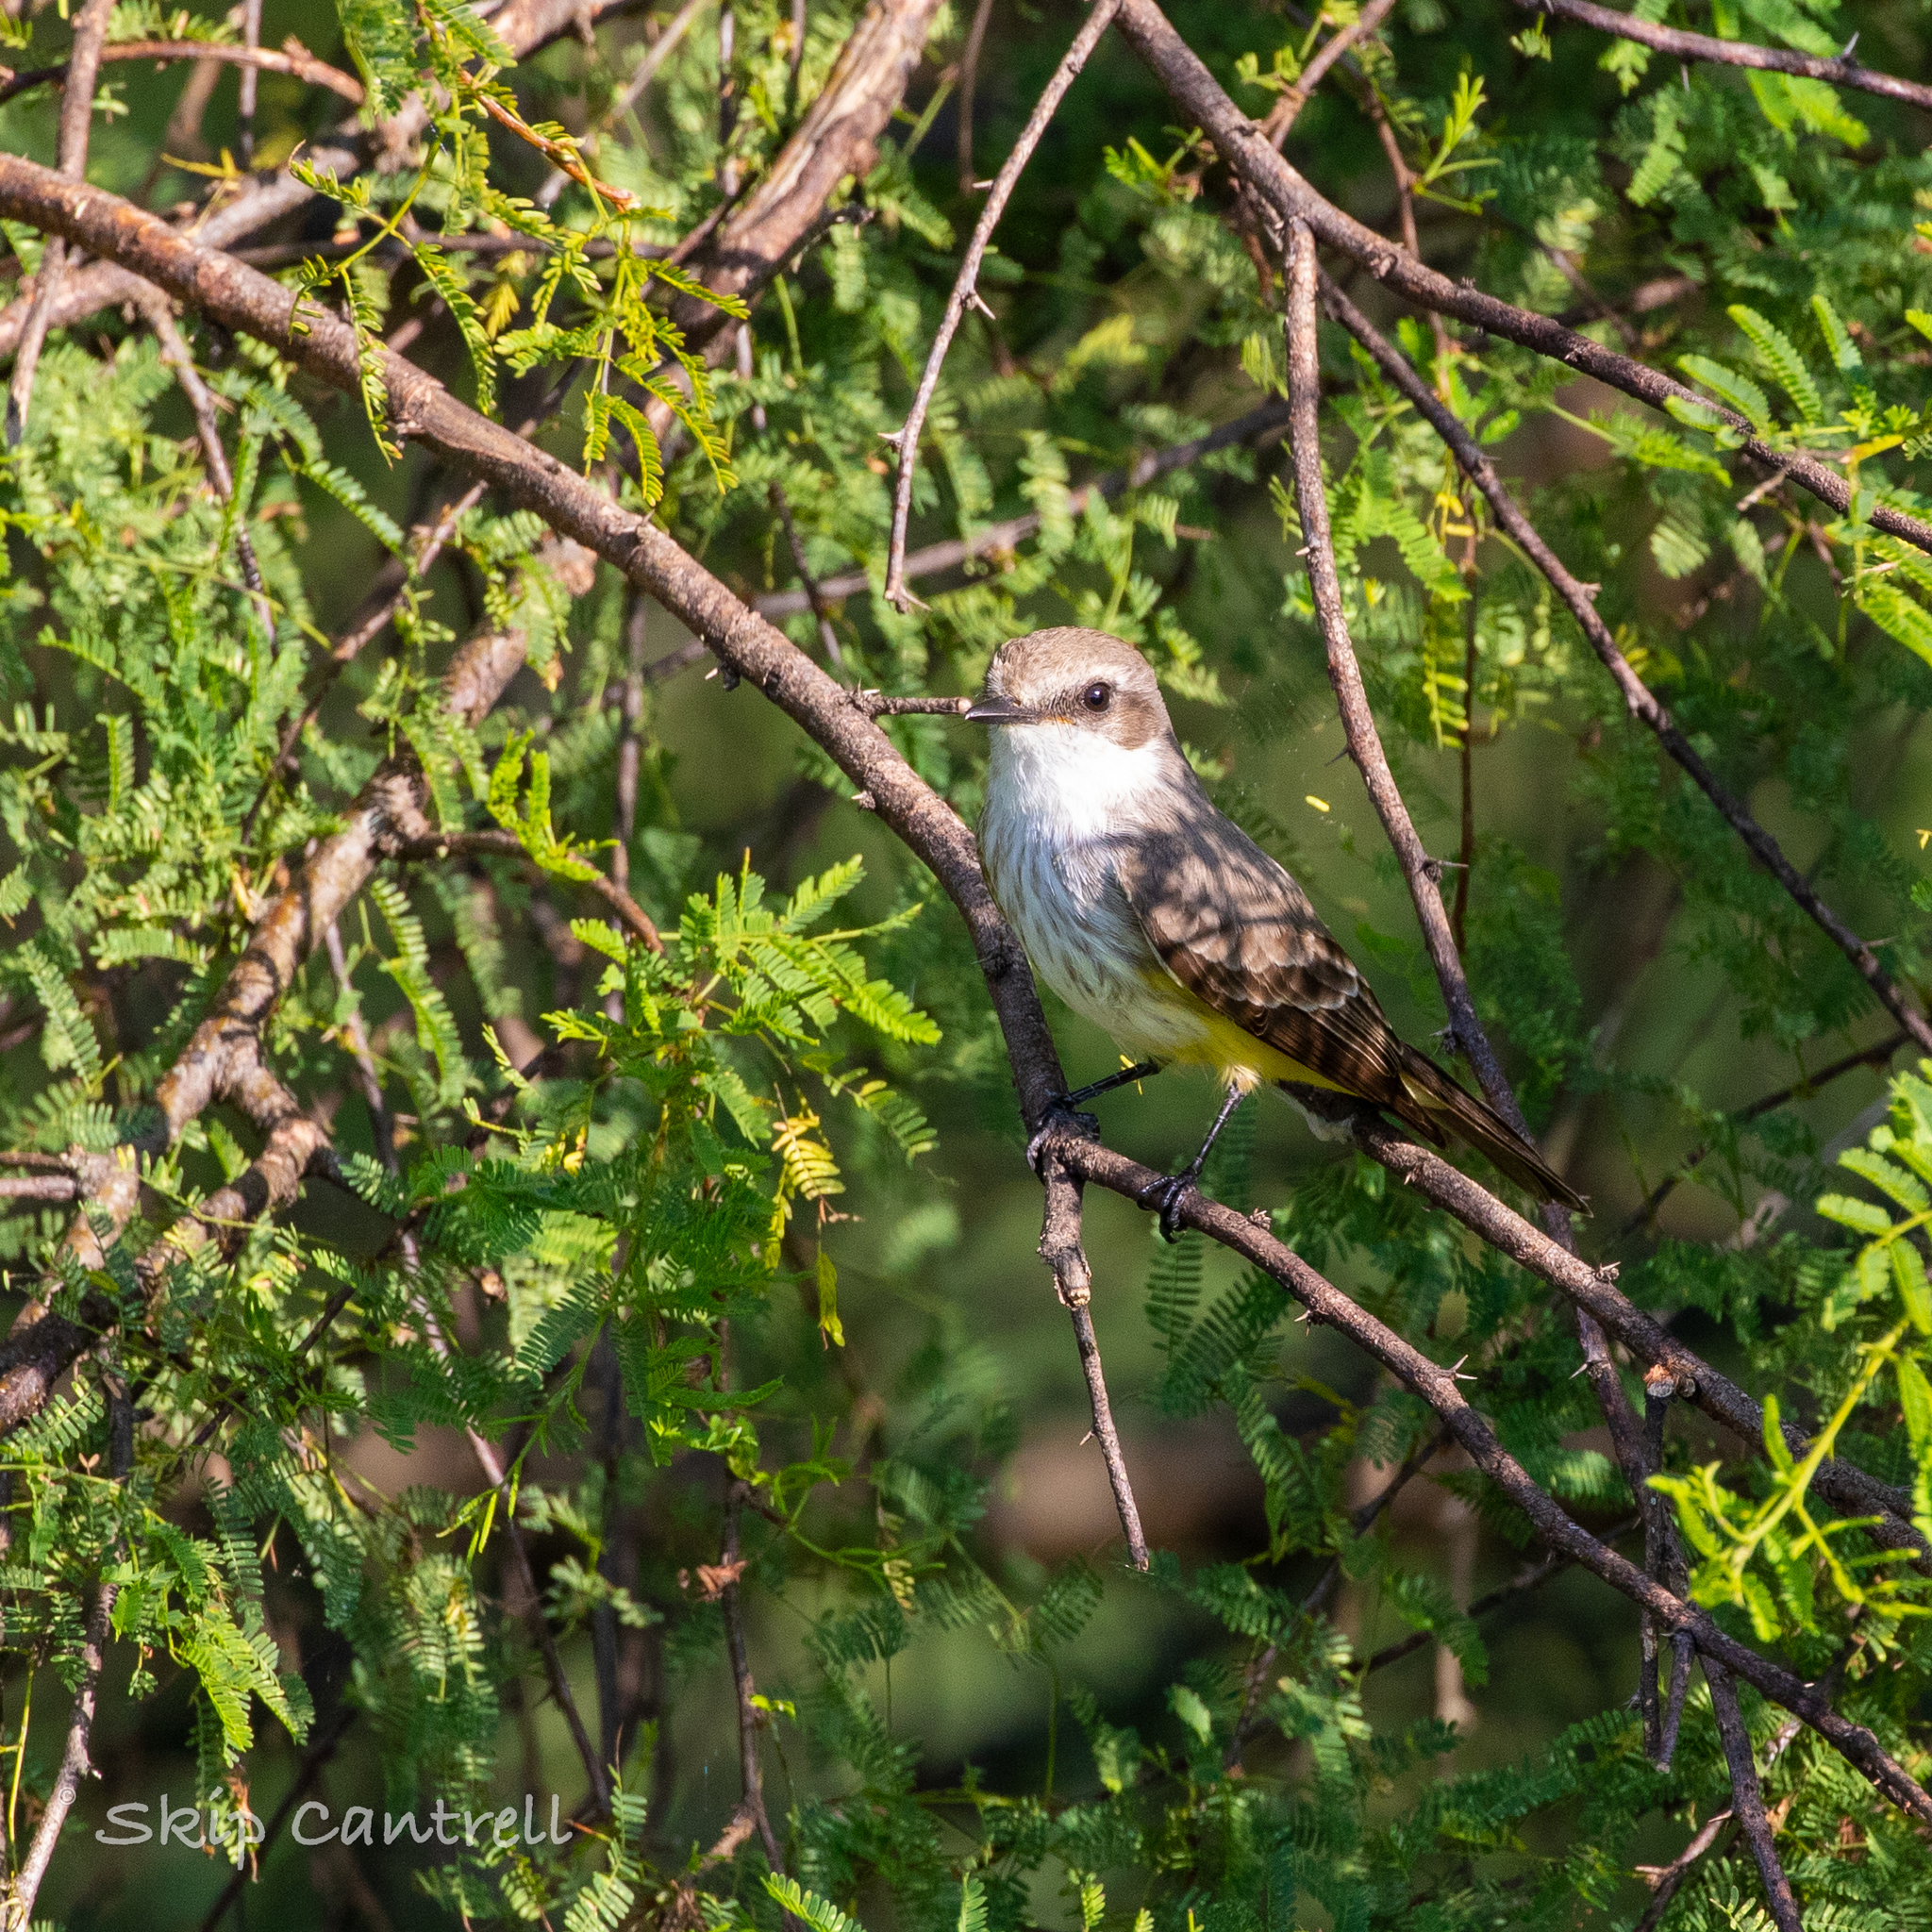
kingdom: Animalia
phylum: Chordata
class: Aves
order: Passeriformes
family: Tyrannidae
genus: Pyrocephalus
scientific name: Pyrocephalus rubinus
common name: Vermilion flycatcher
